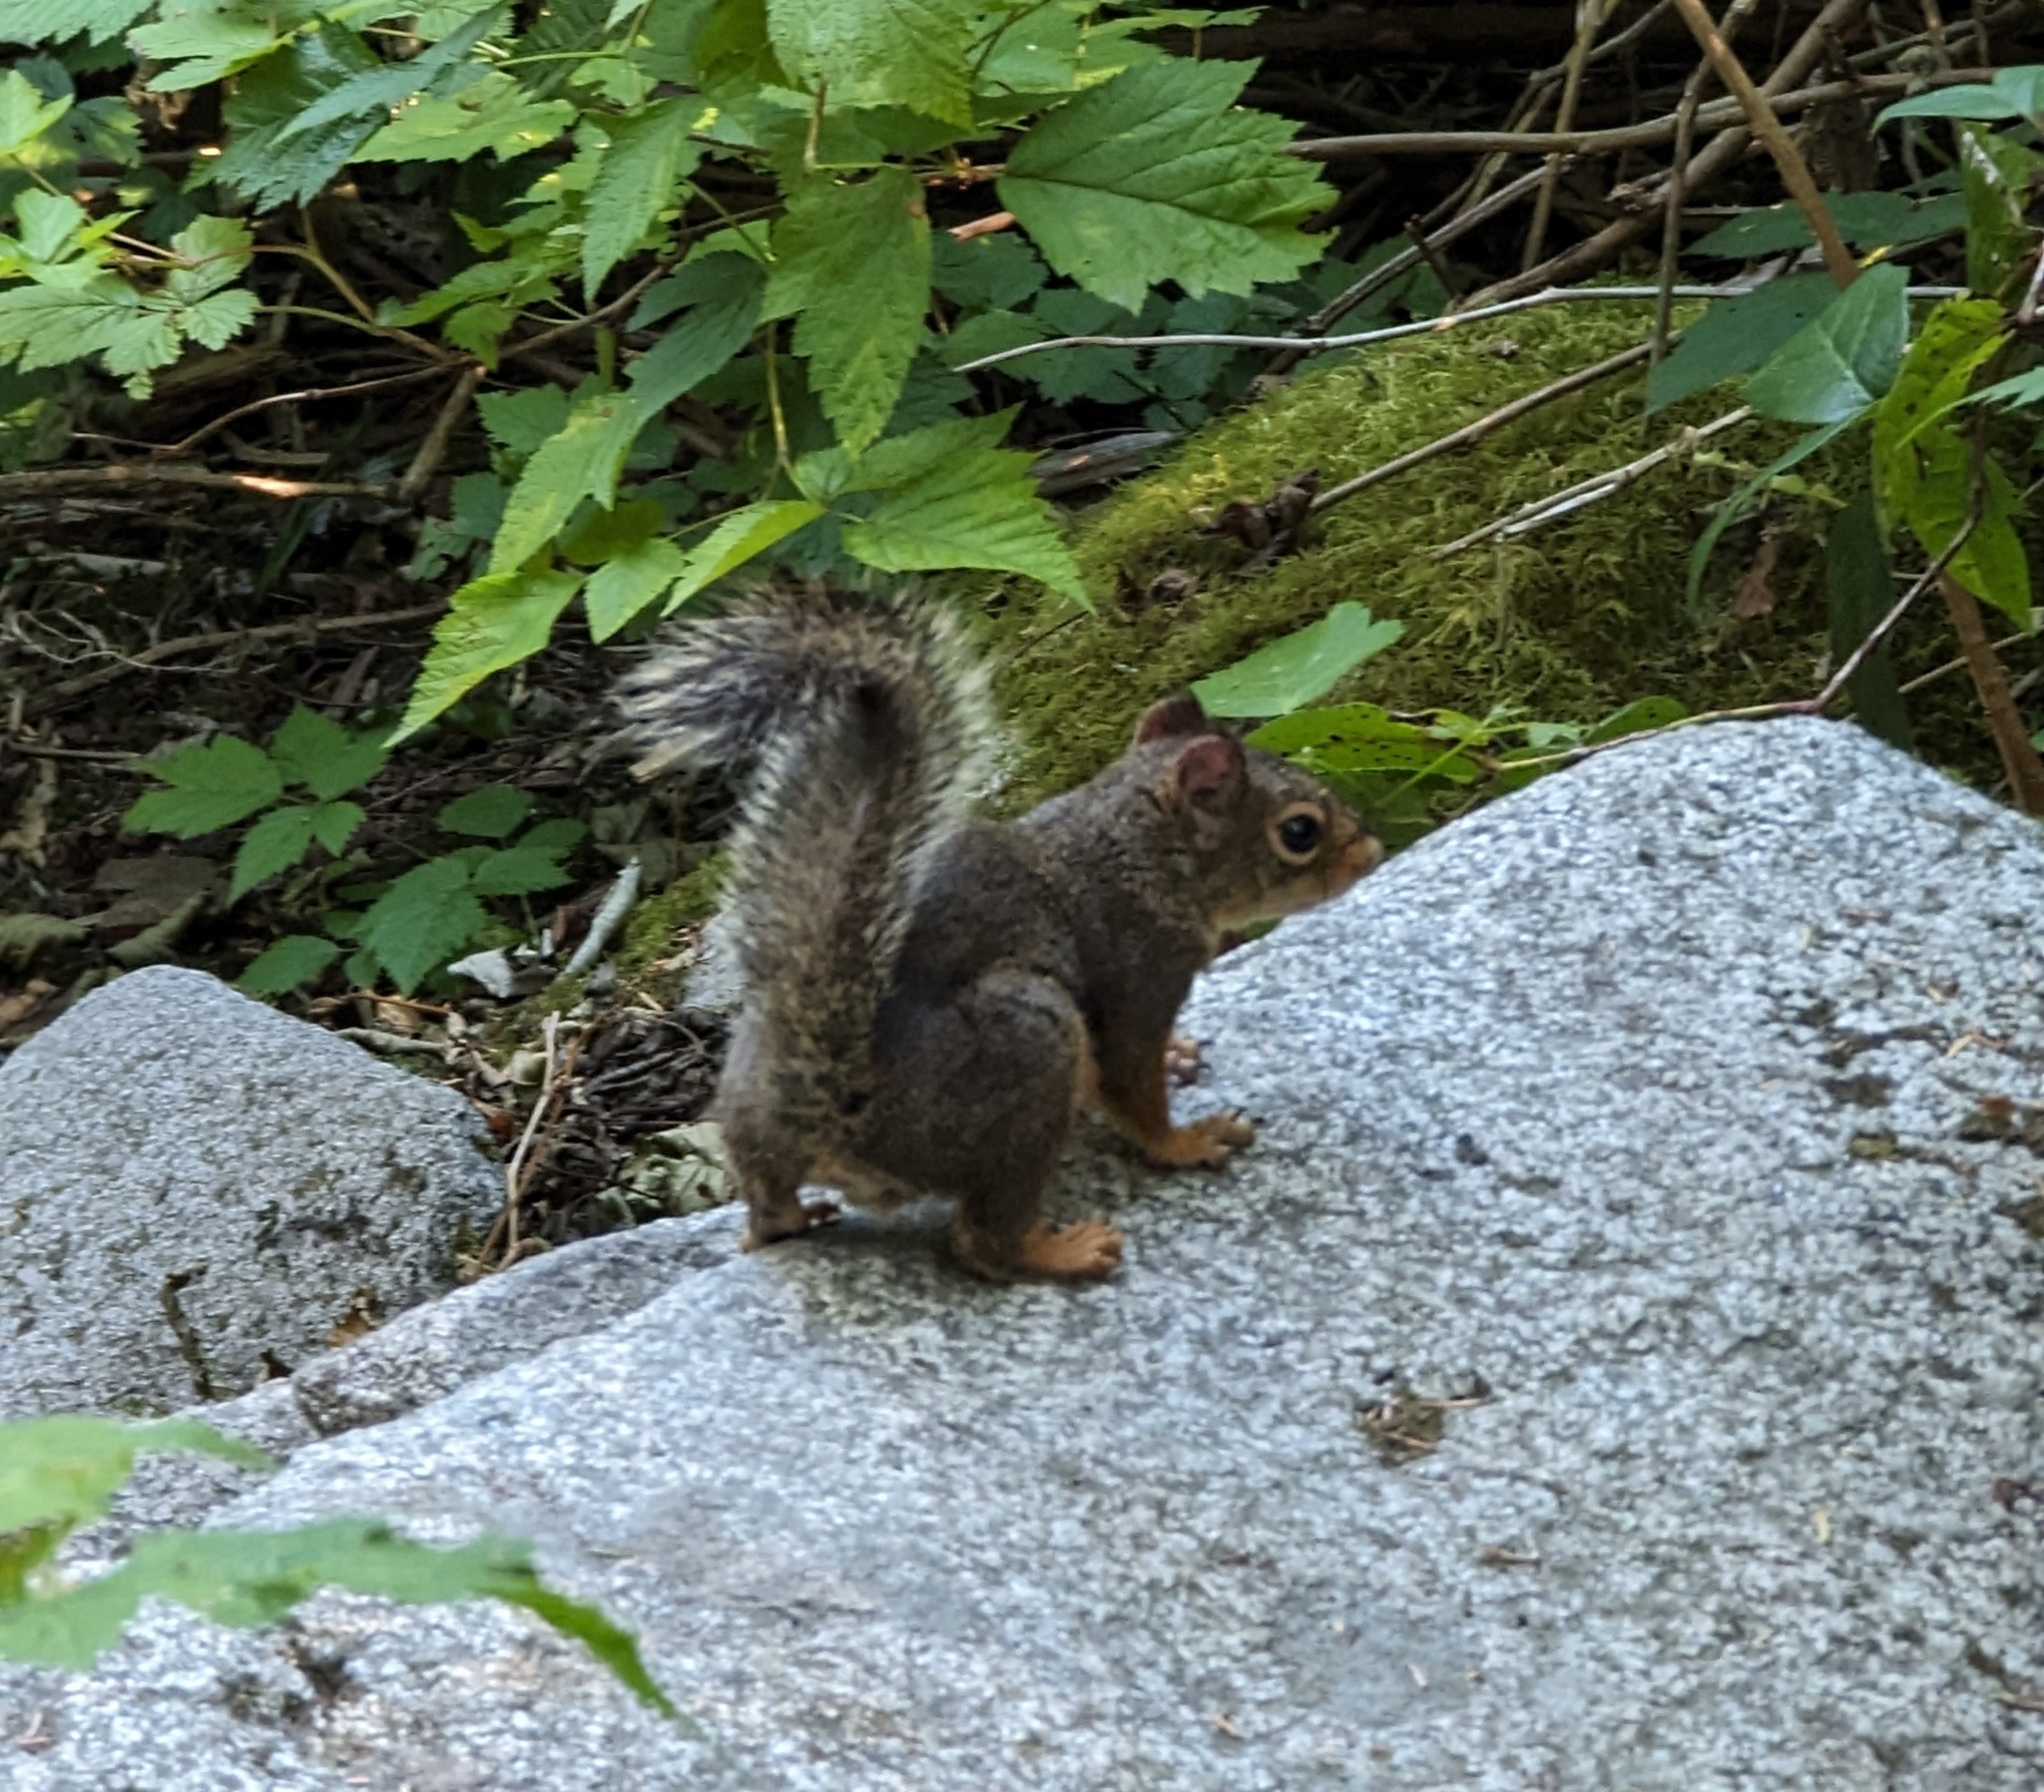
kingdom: Animalia
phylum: Chordata
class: Mammalia
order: Rodentia
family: Sciuridae
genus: Tamiasciurus
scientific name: Tamiasciurus douglasii
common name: Douglas's squirrel
